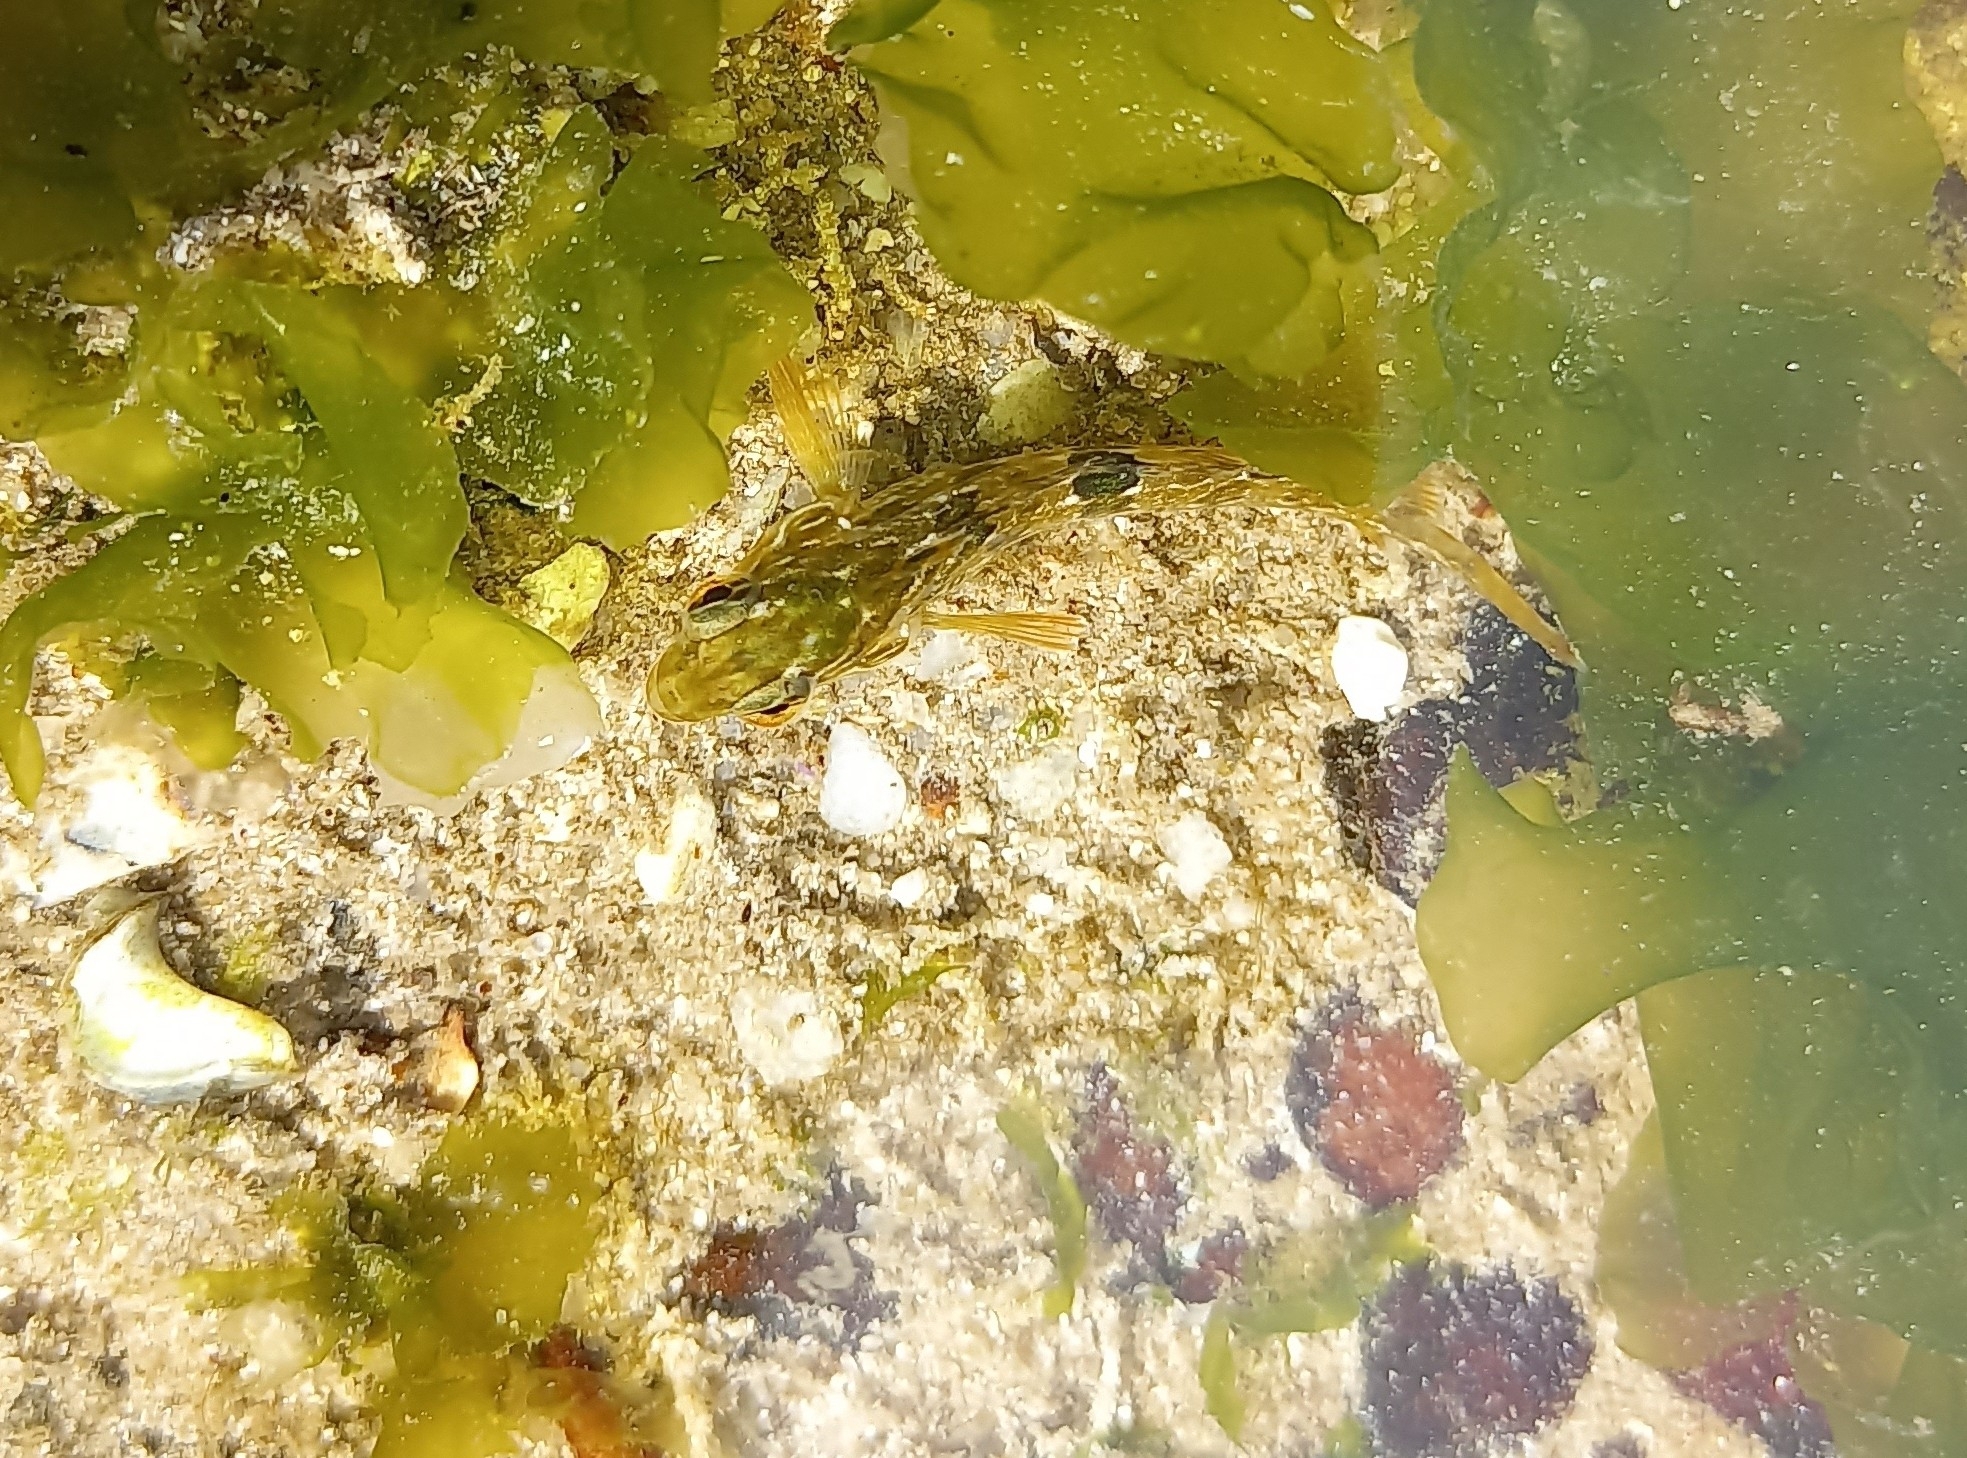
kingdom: Animalia
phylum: Chordata
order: Perciformes
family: Clinidae
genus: Clinus
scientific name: Clinus superciliosus
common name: Super klipfish
